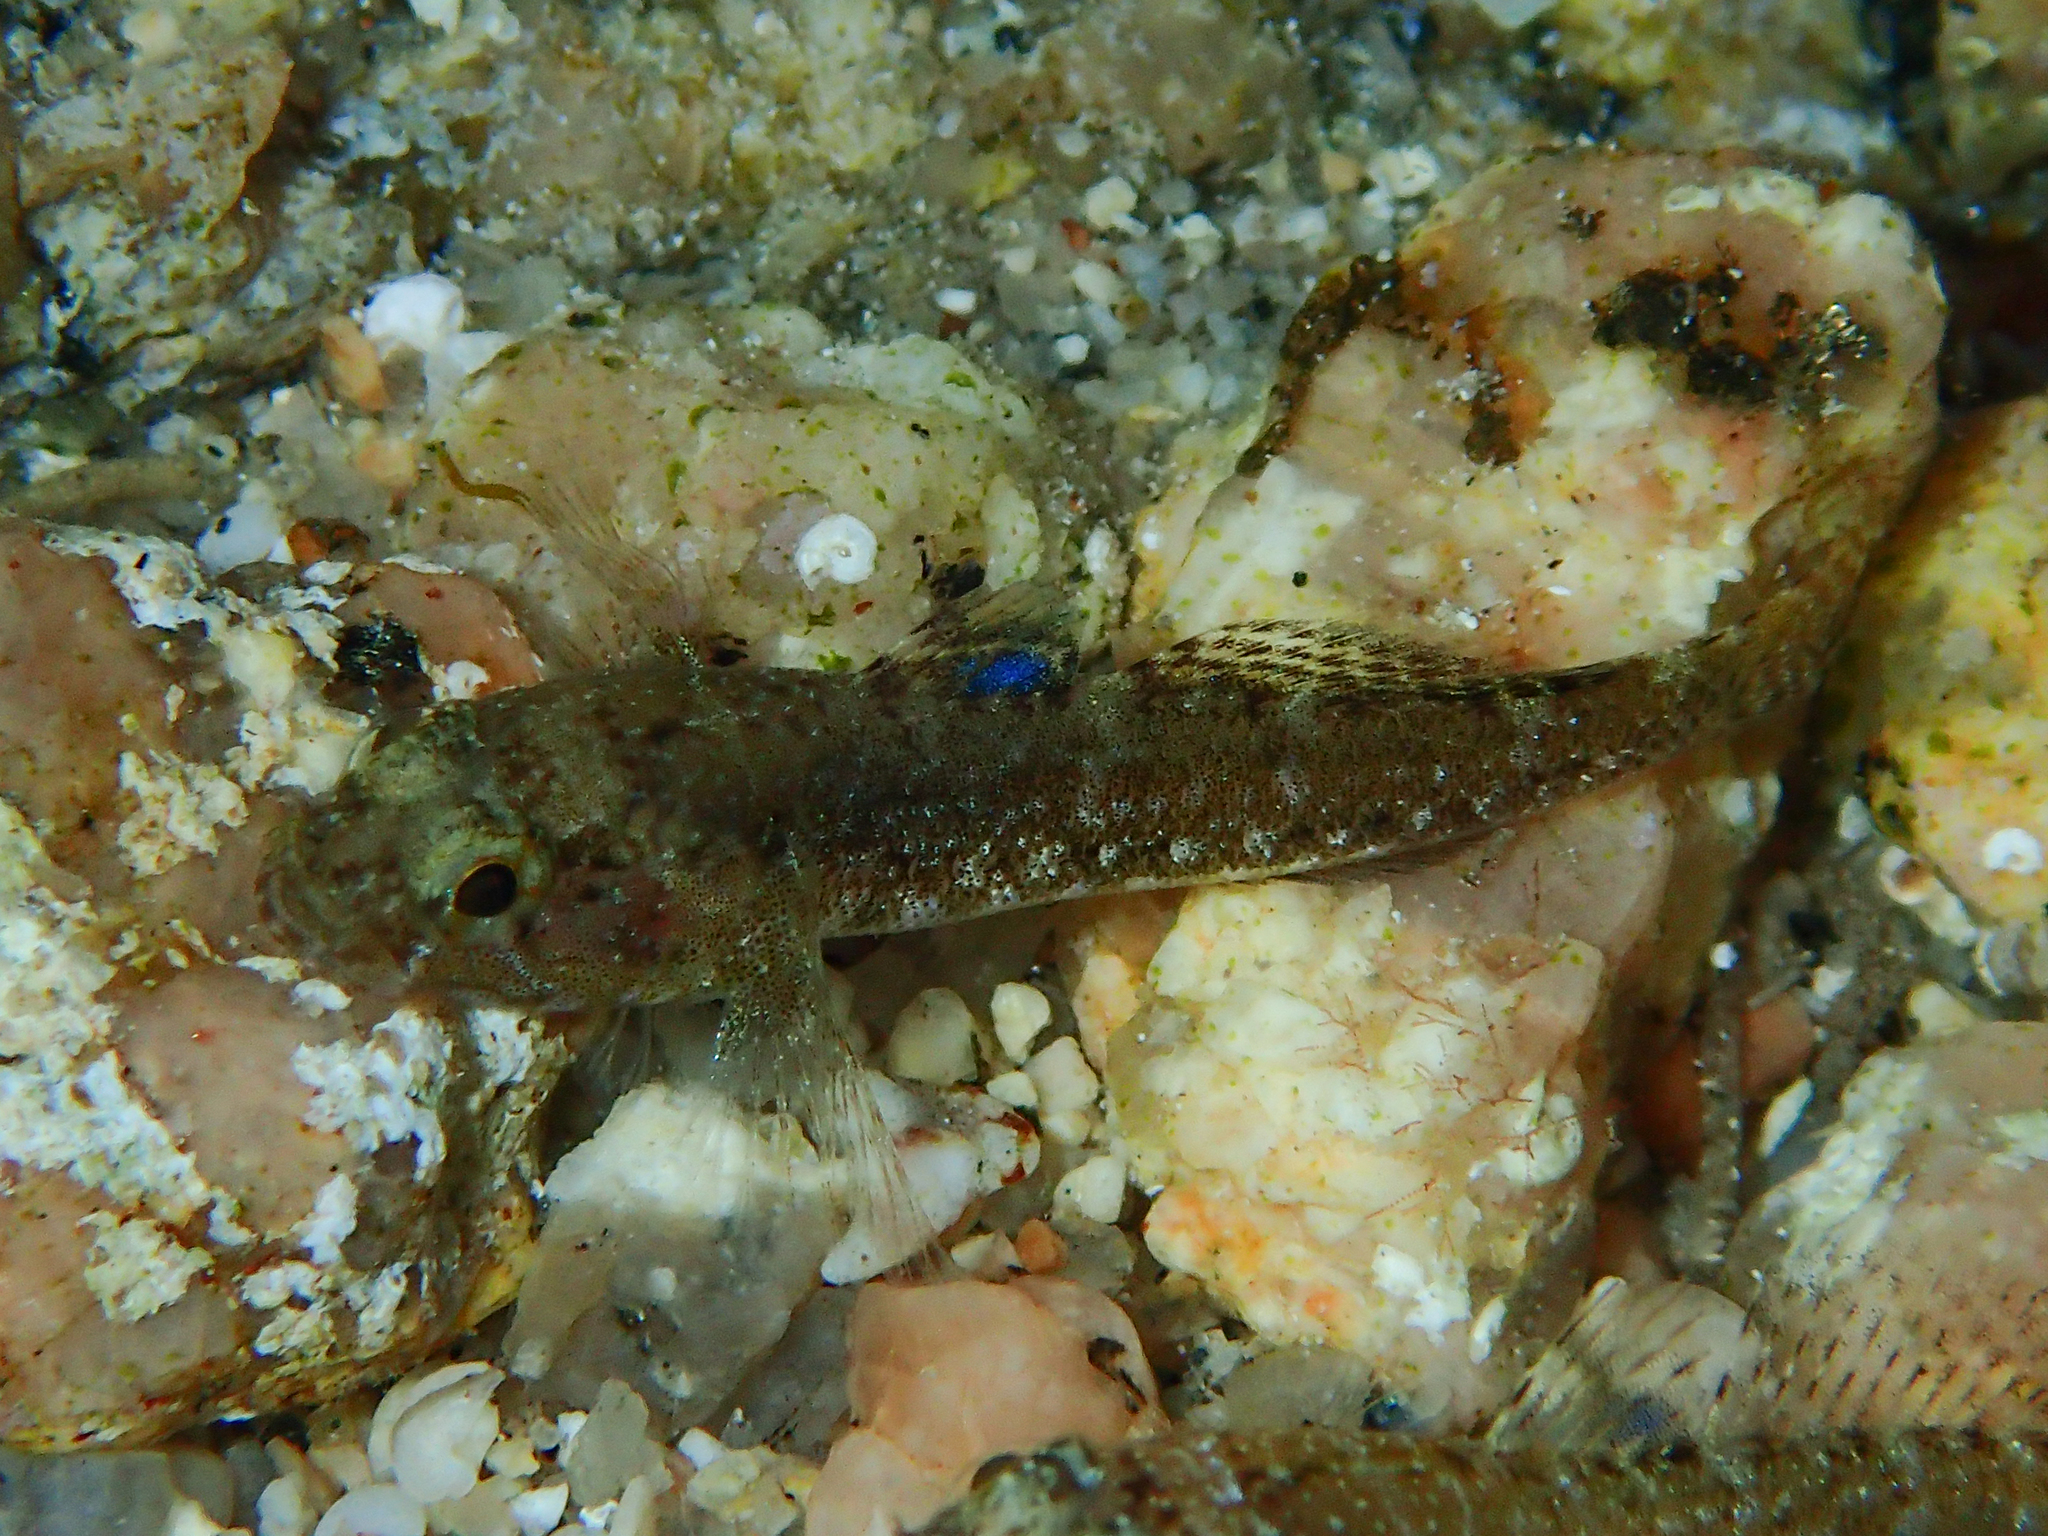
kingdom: Animalia
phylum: Chordata
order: Perciformes
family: Gobiidae
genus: Gobius
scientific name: Gobius paganellus
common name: Rock goby
